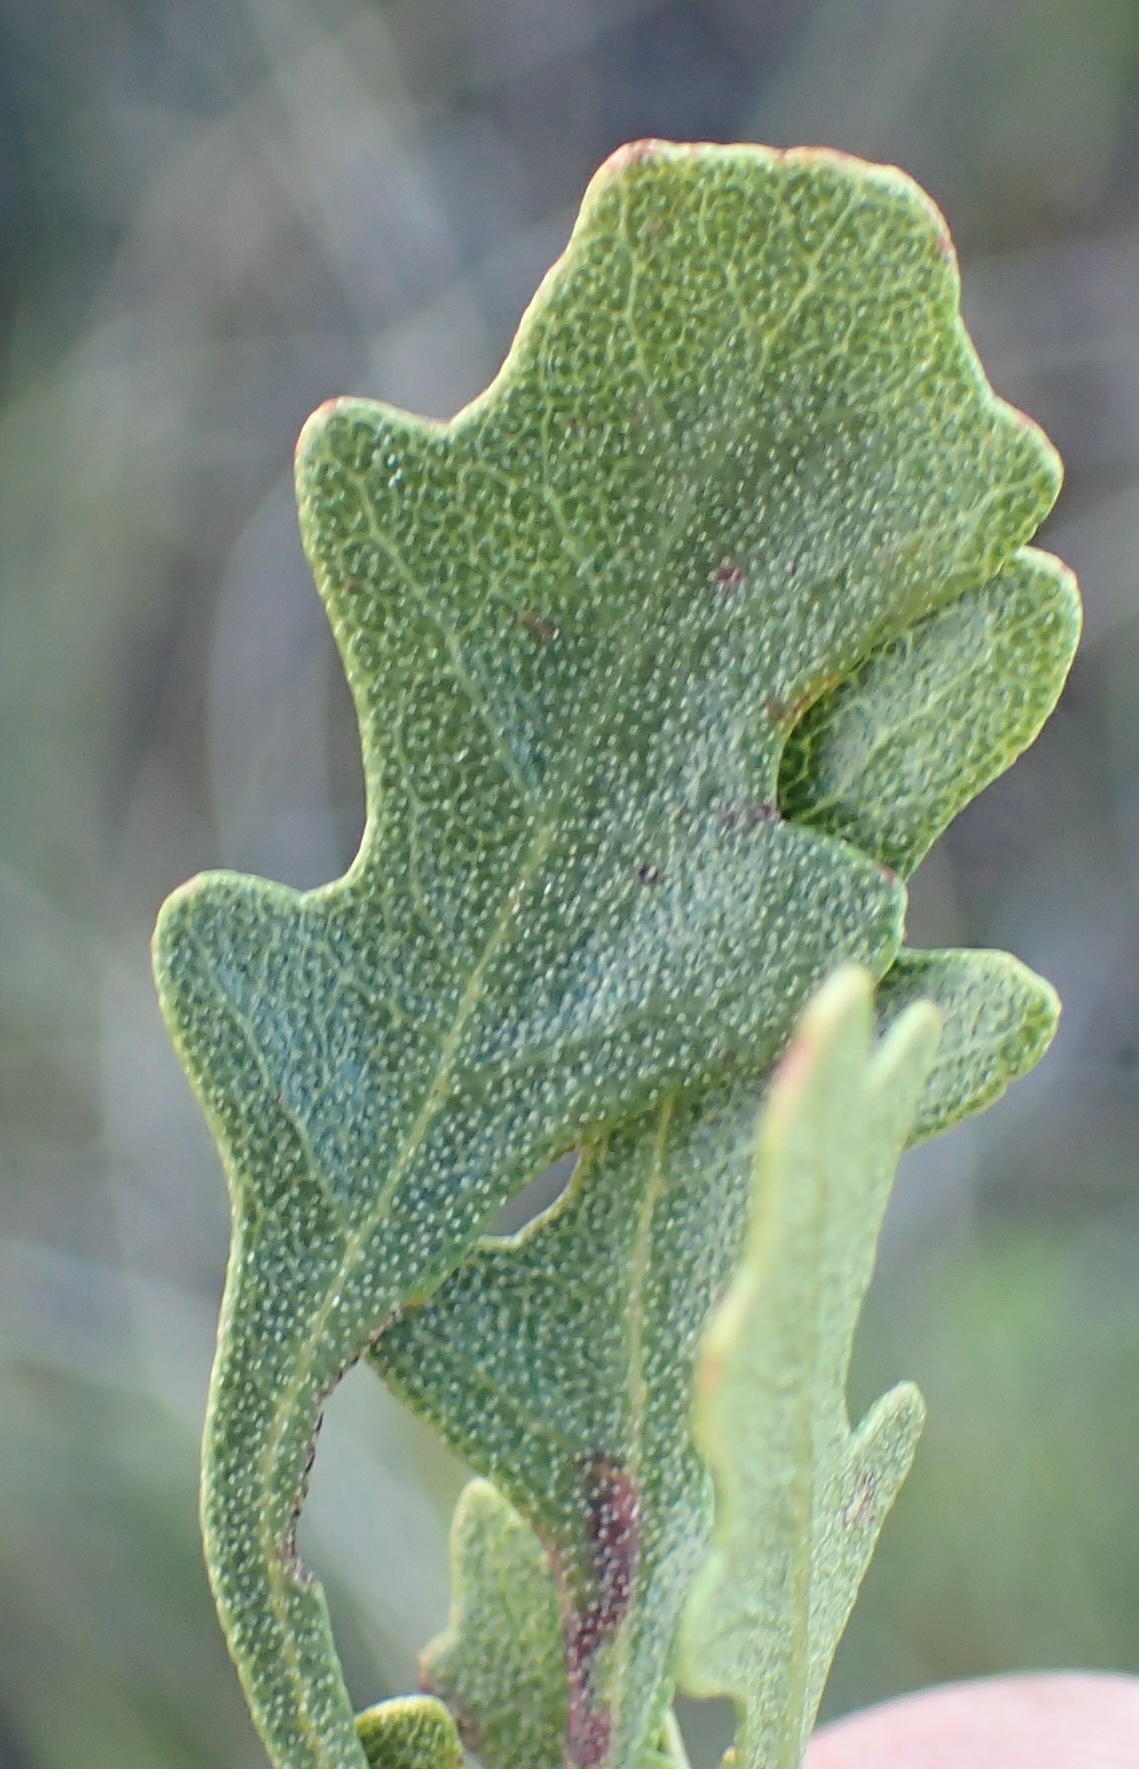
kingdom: Plantae
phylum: Tracheophyta
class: Magnoliopsida
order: Fagales
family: Myricaceae
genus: Morella
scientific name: Morella quercifolia
